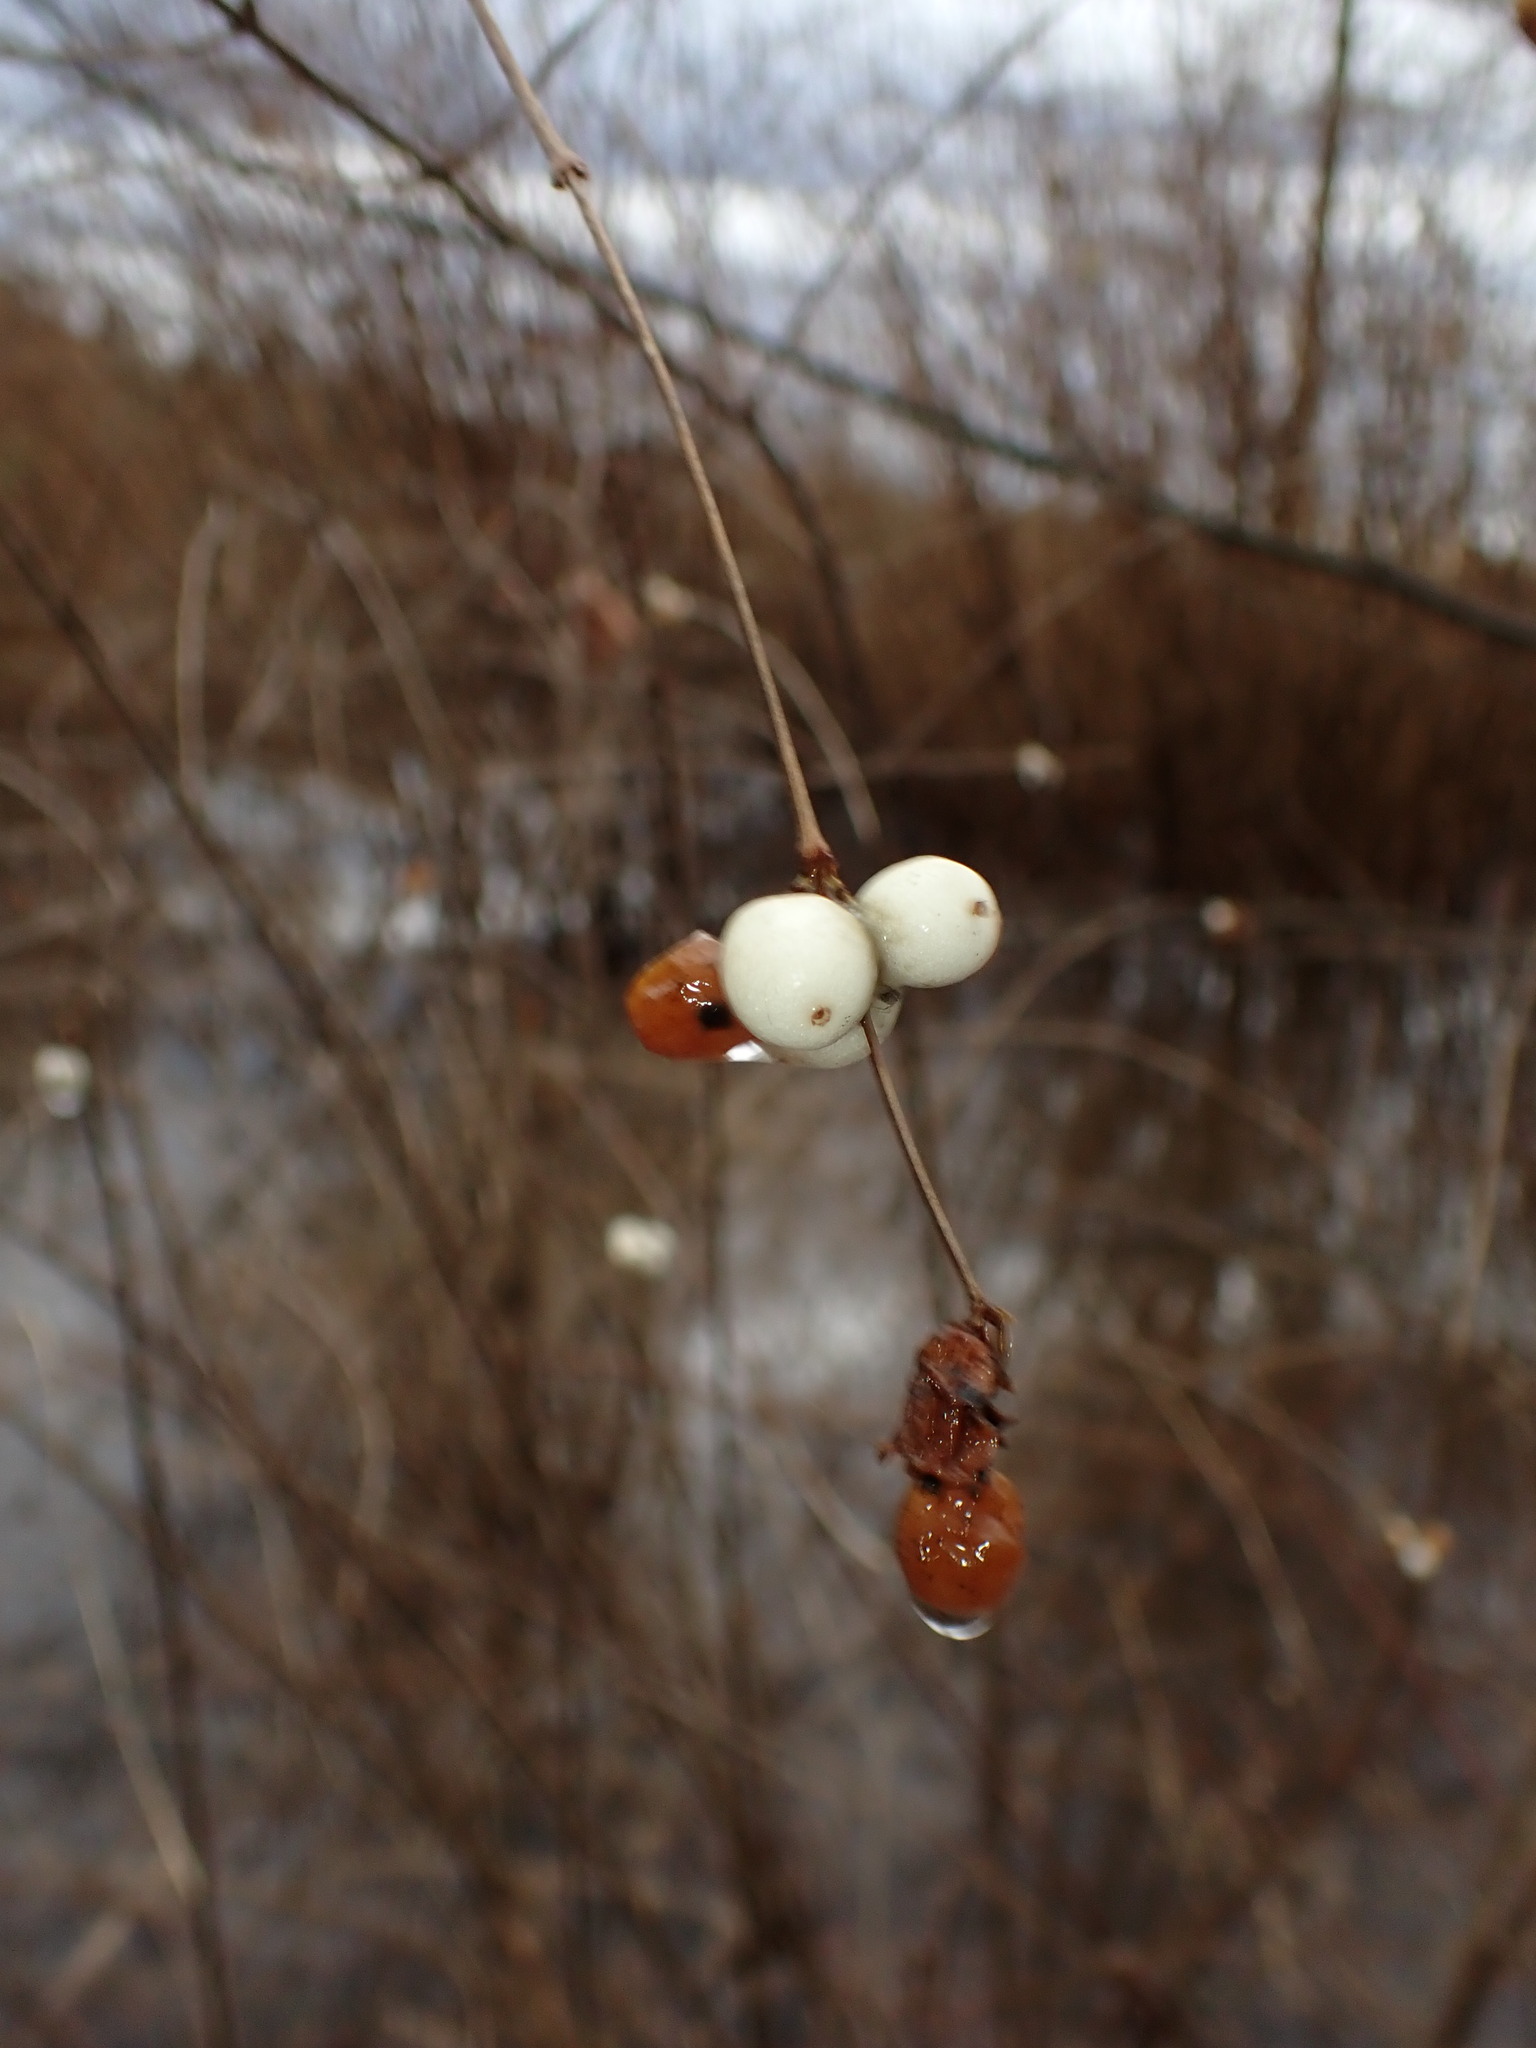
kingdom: Plantae
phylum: Tracheophyta
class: Magnoliopsida
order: Dipsacales
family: Caprifoliaceae
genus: Symphoricarpos
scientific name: Symphoricarpos albus
